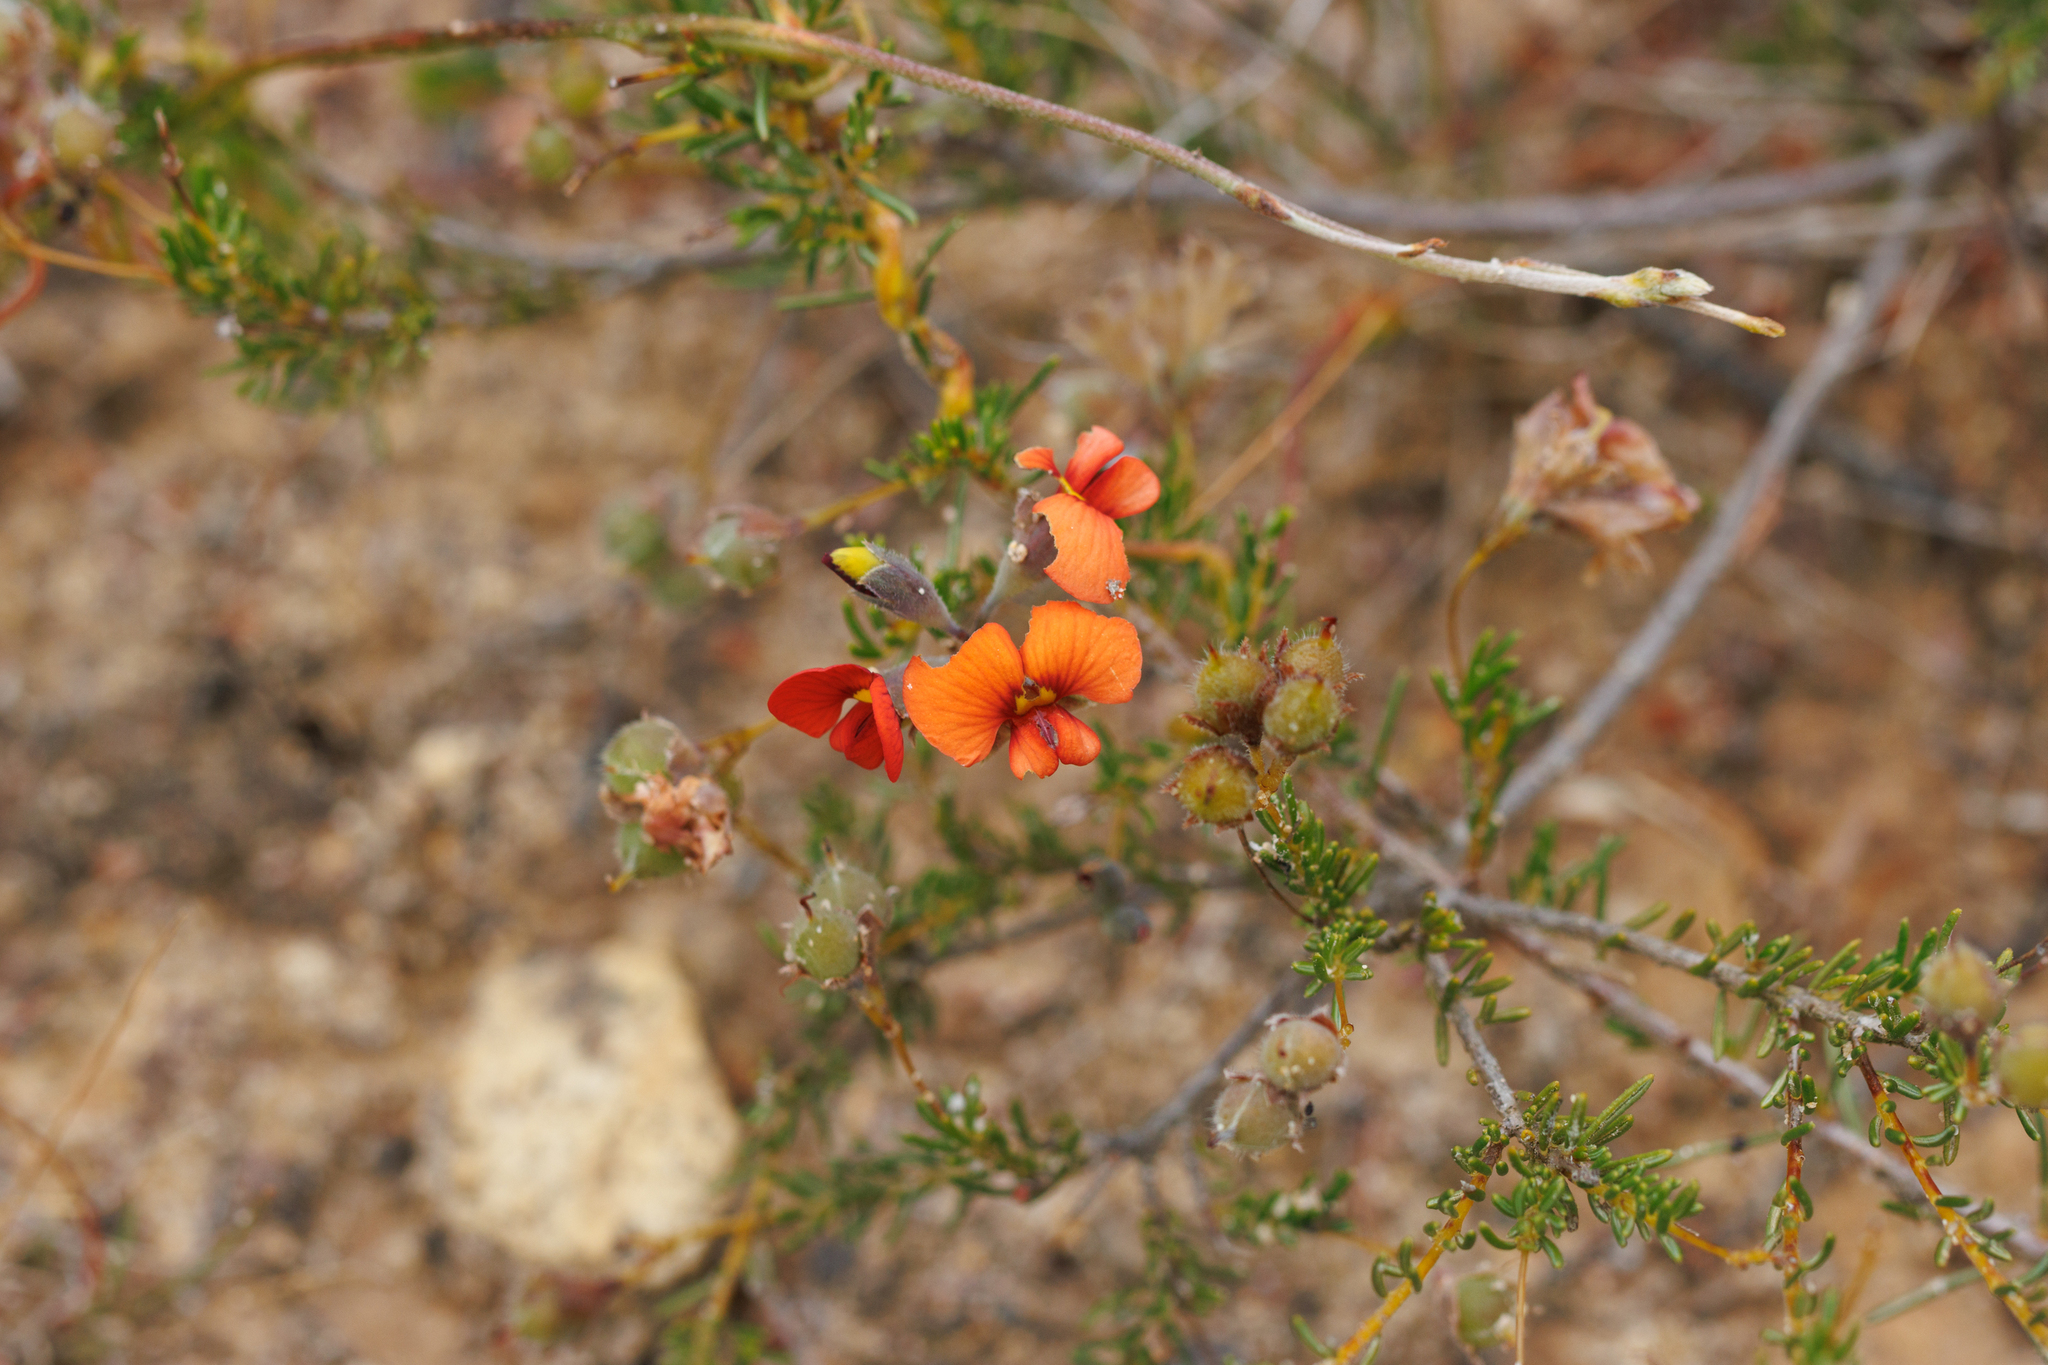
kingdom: Plantae
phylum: Tracheophyta
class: Magnoliopsida
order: Fabales
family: Fabaceae
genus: Dillwynia
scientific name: Dillwynia hispida
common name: Red parrot-pea
